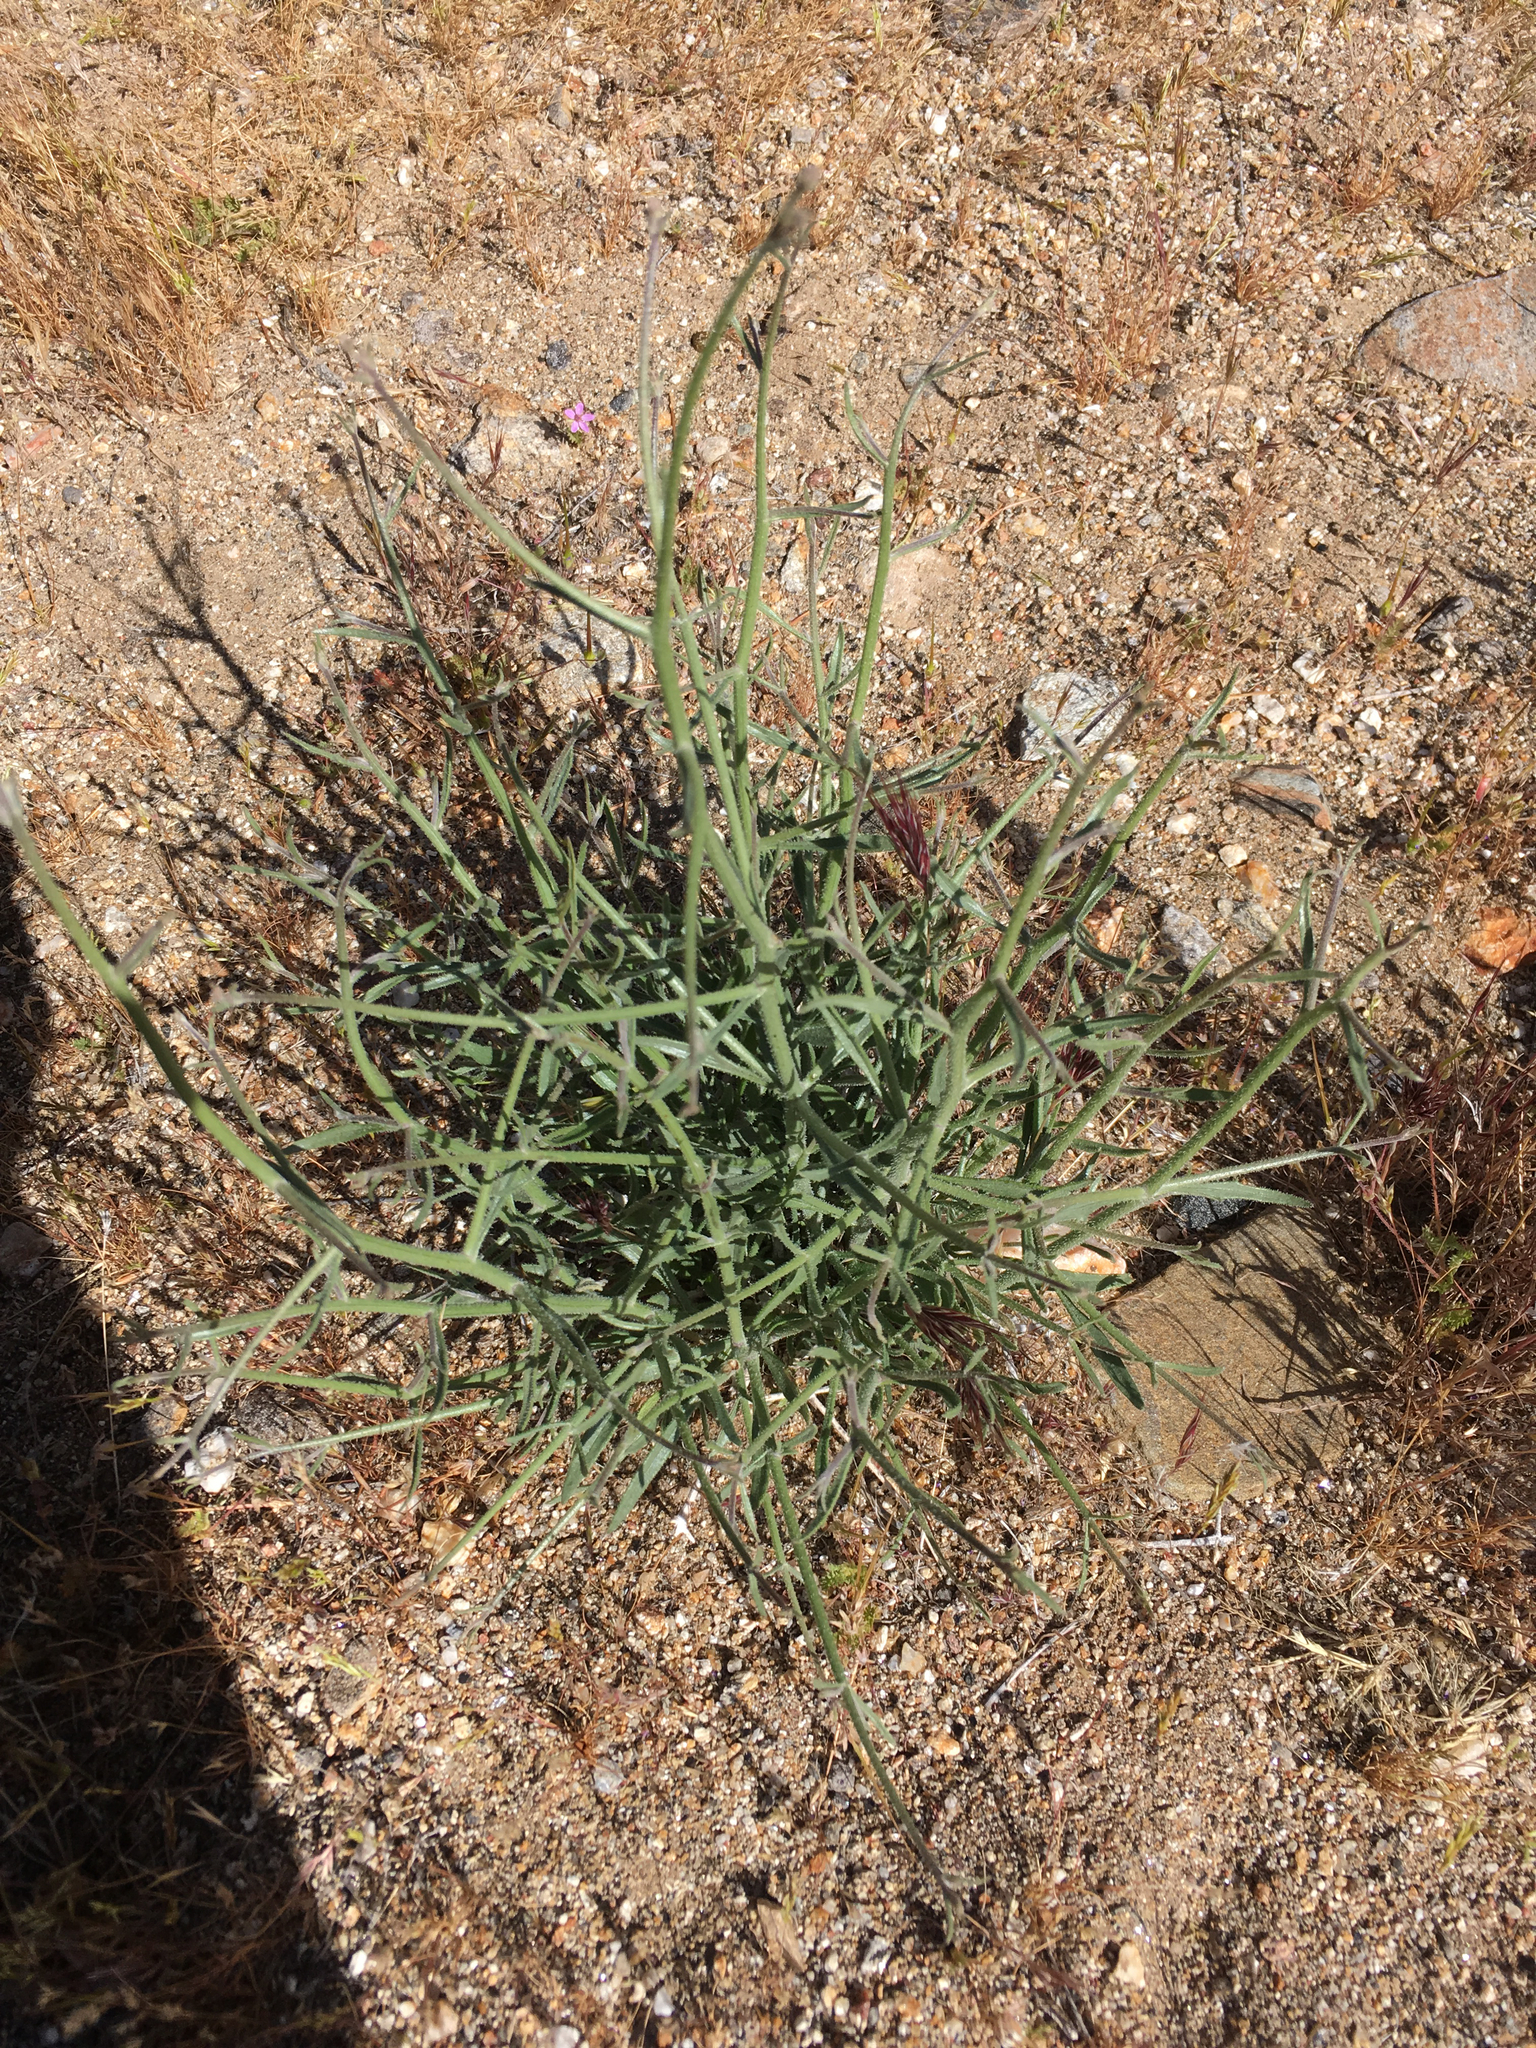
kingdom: Plantae
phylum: Tracheophyta
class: Magnoliopsida
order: Asterales
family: Asteraceae
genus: Bebbia
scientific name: Bebbia juncea
